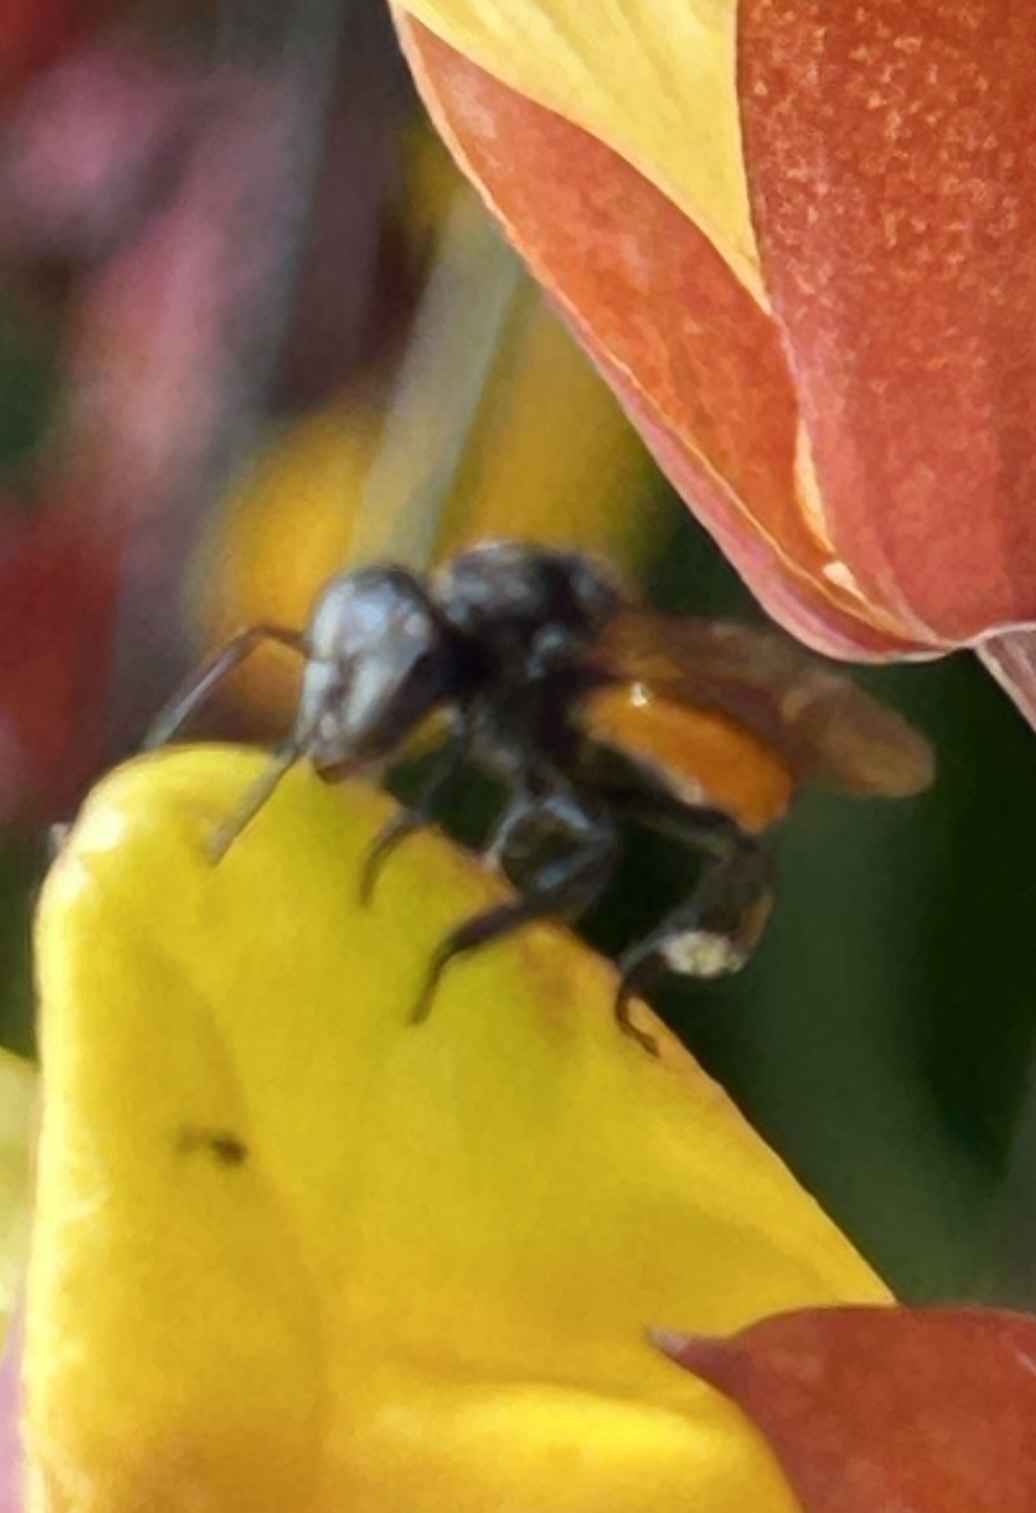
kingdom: Animalia
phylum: Arthropoda
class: Insecta
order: Hymenoptera
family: Apidae
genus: Trigona
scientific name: Trigona fulviventris
